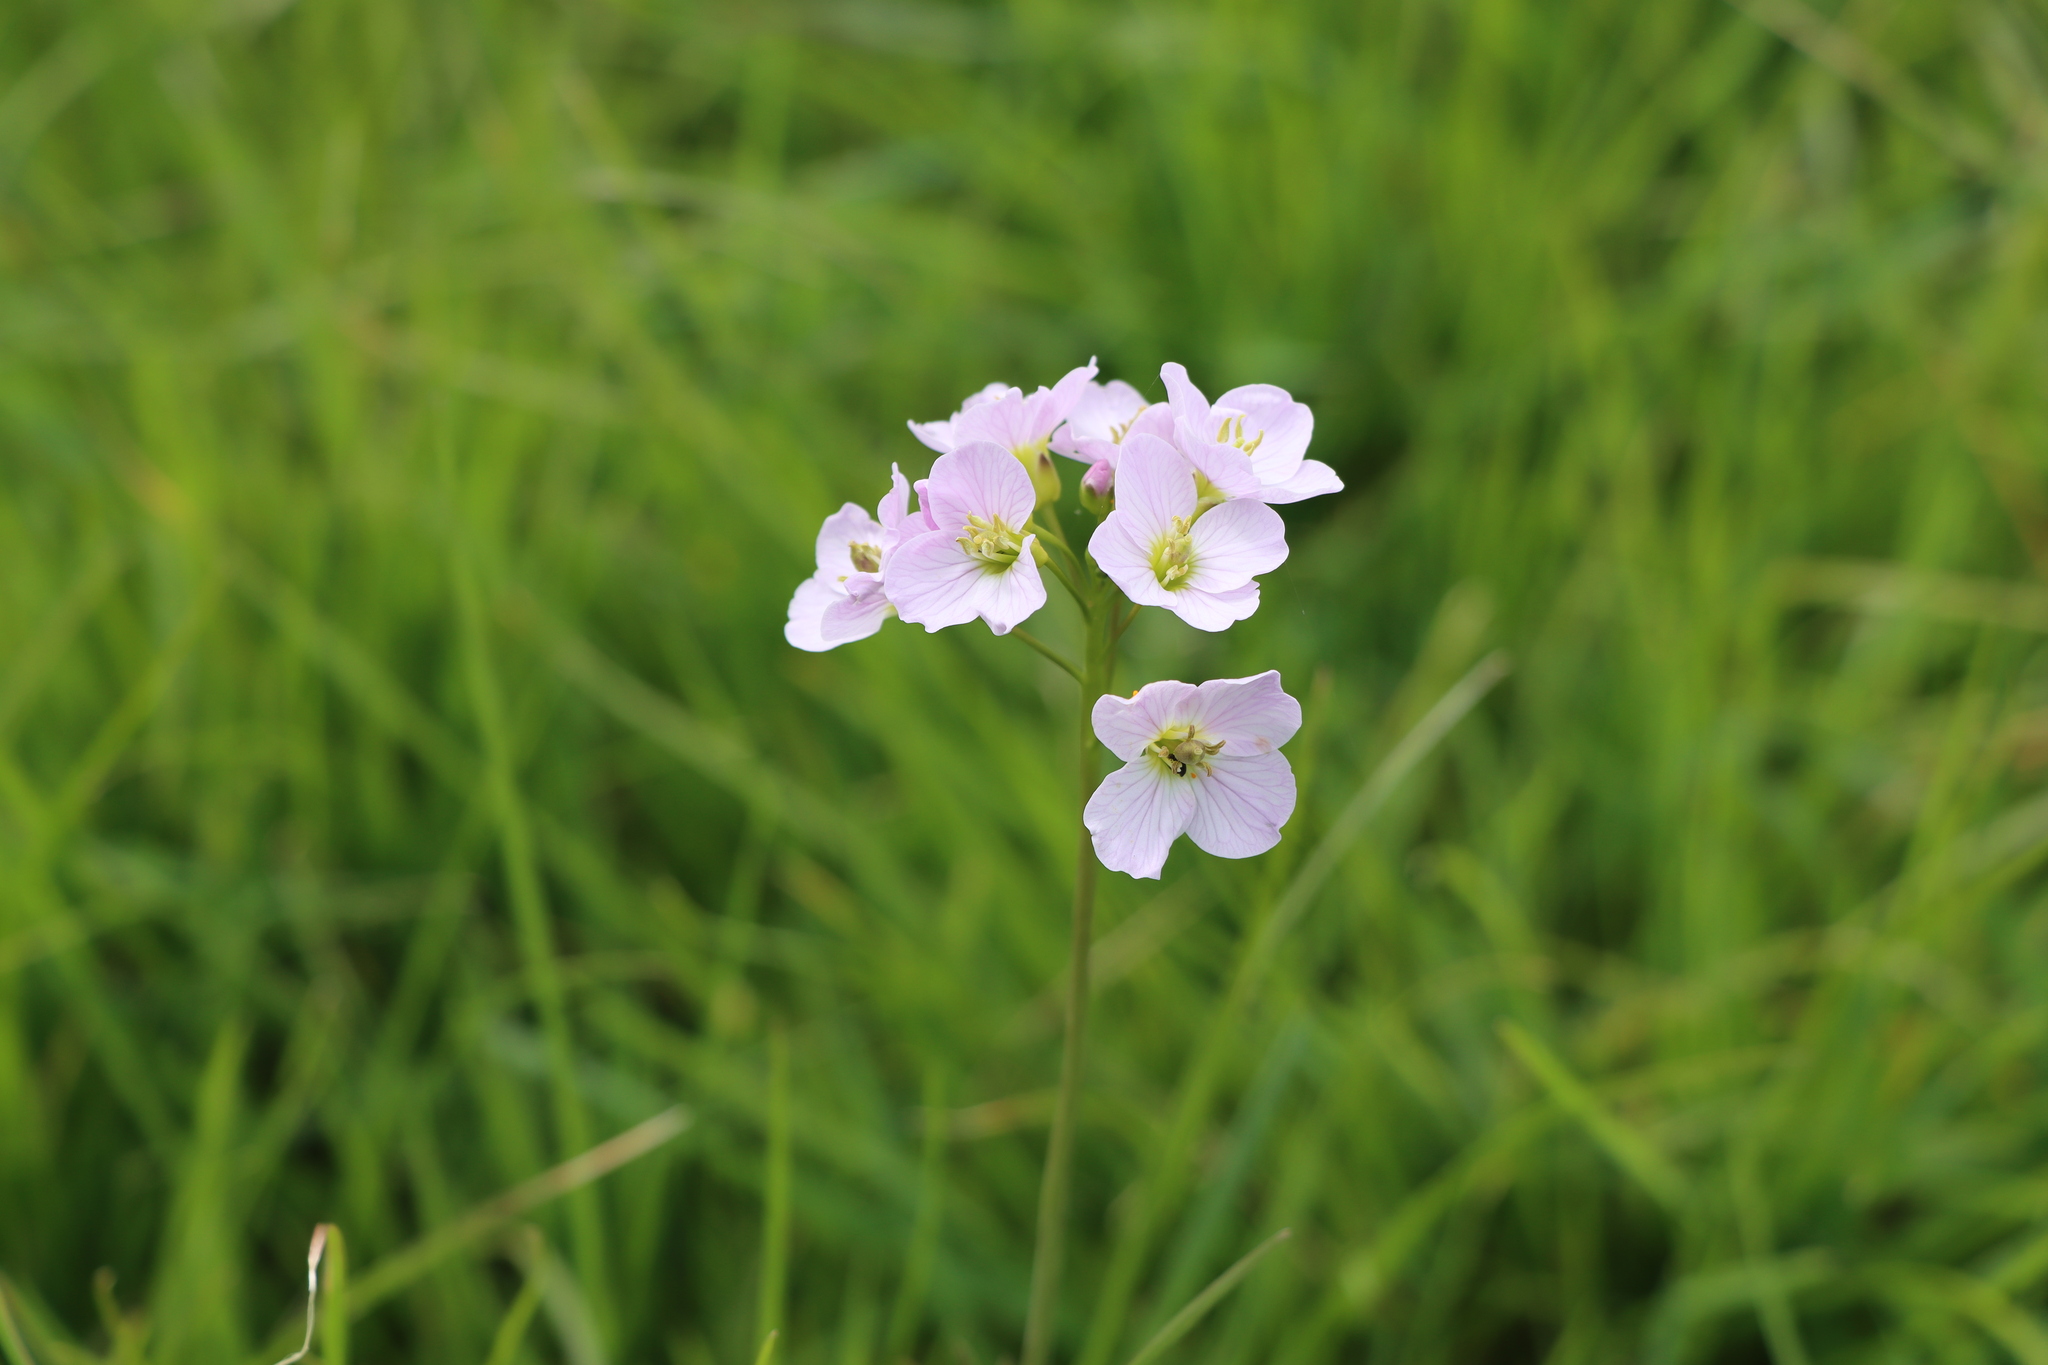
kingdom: Plantae
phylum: Tracheophyta
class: Magnoliopsida
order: Brassicales
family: Brassicaceae
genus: Cardamine
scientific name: Cardamine pratensis
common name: Cuckoo flower
